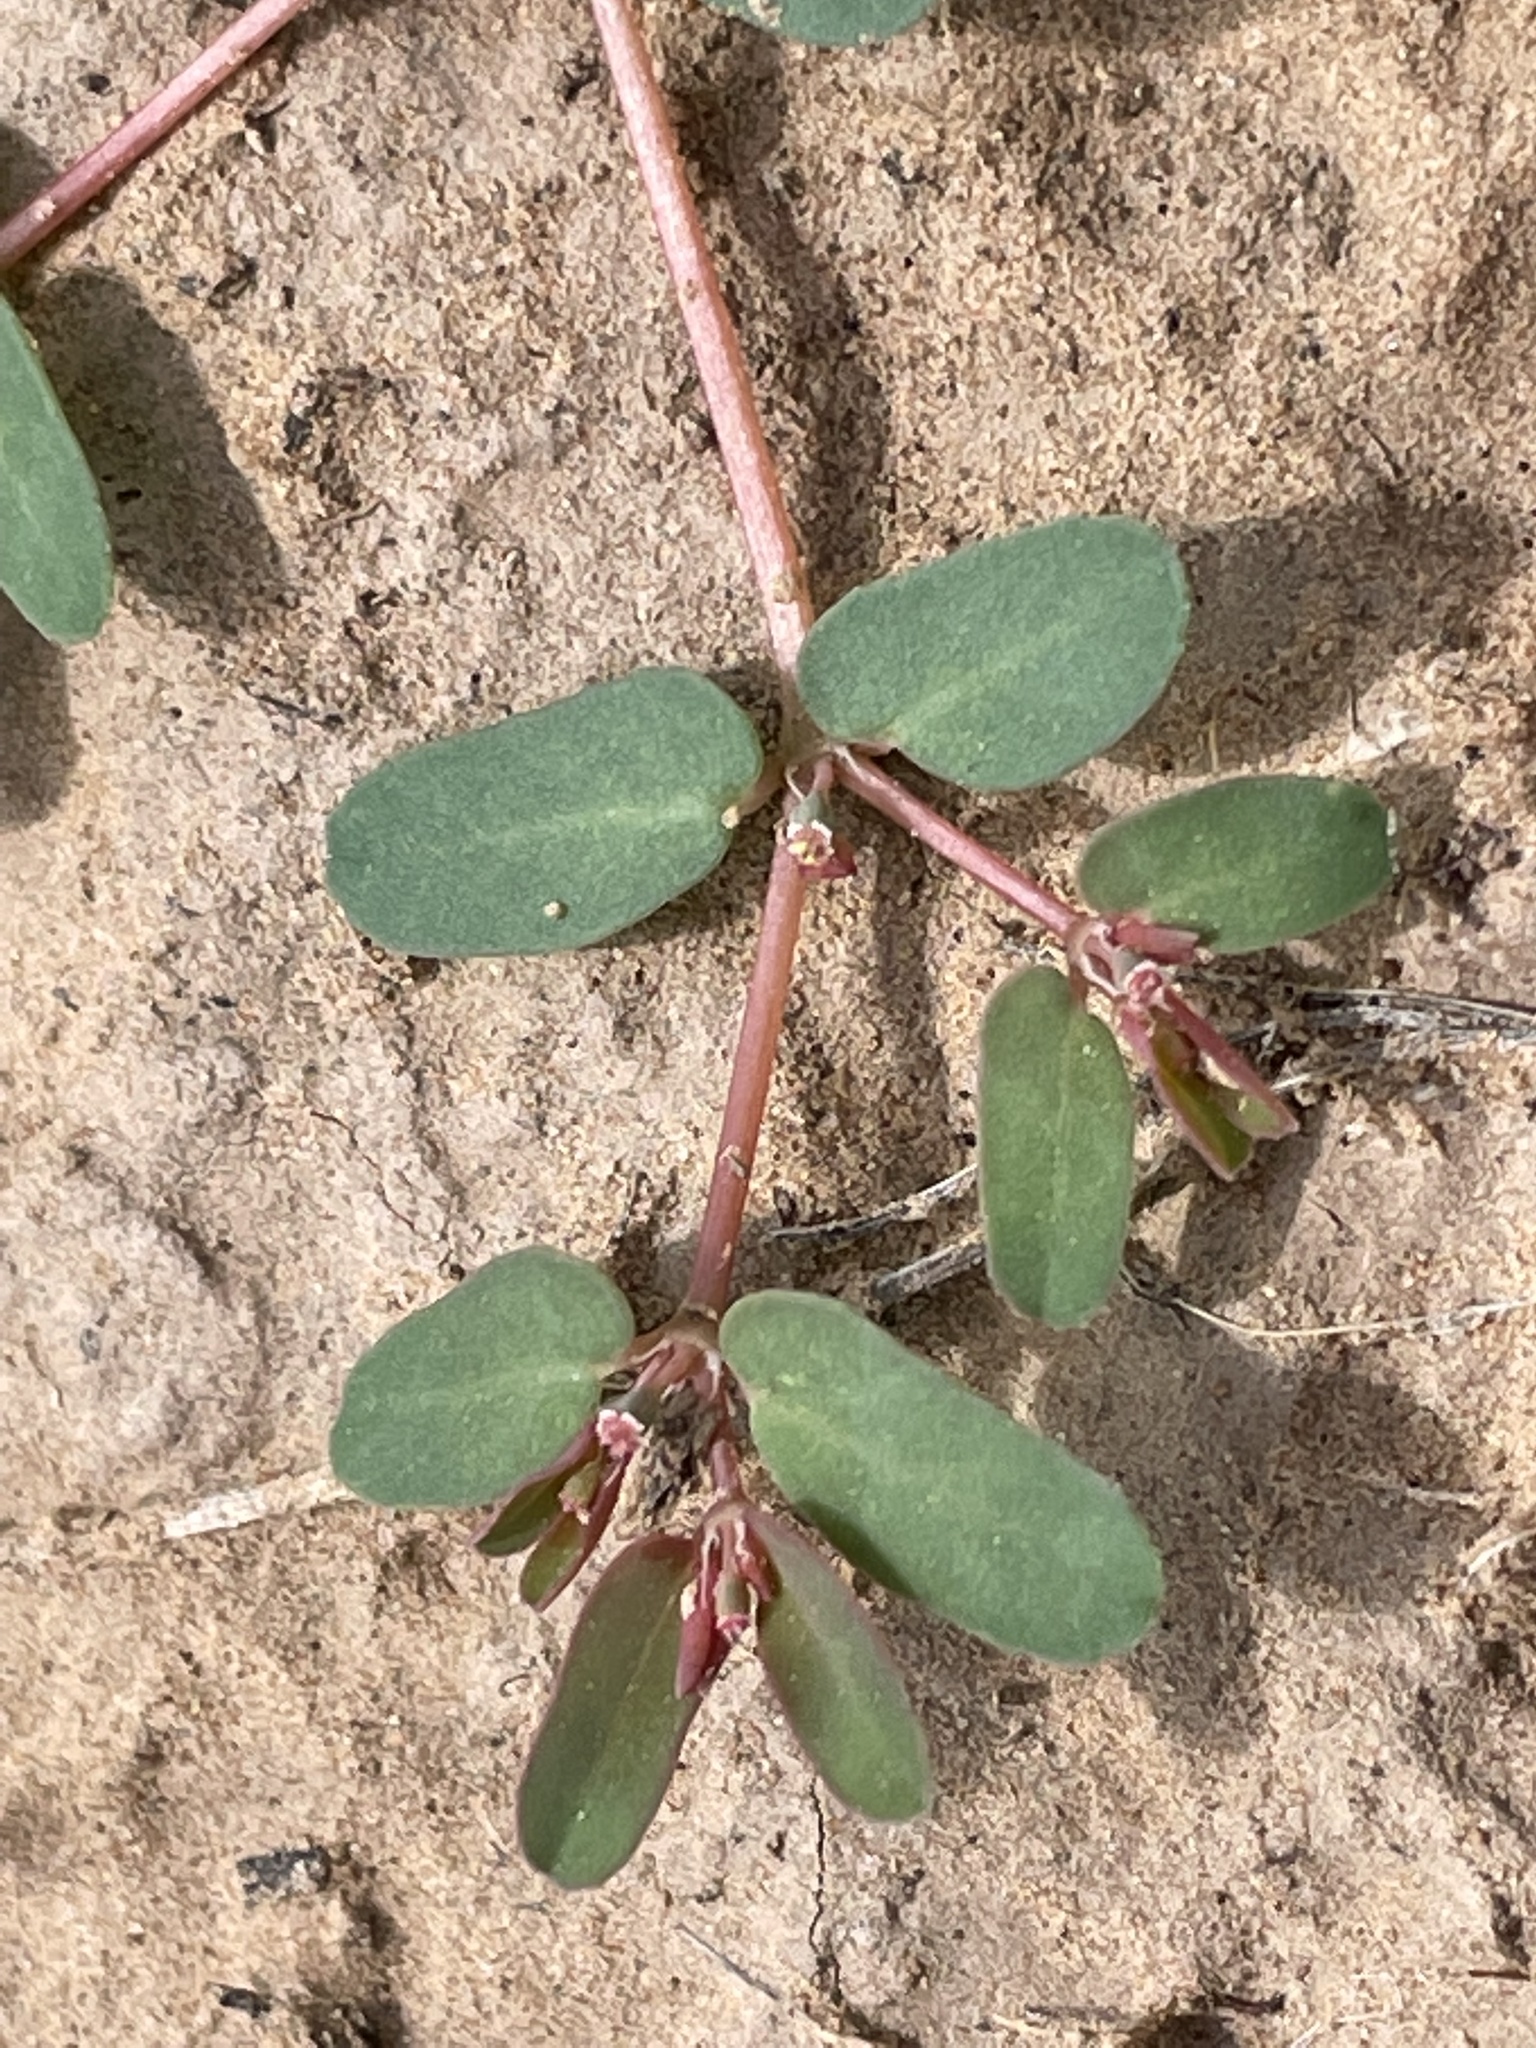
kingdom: Plantae
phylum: Tracheophyta
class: Magnoliopsida
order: Malpighiales
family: Euphorbiaceae
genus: Euphorbia
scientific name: Euphorbia glyptosperma
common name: Corrugate-seeded spurge
